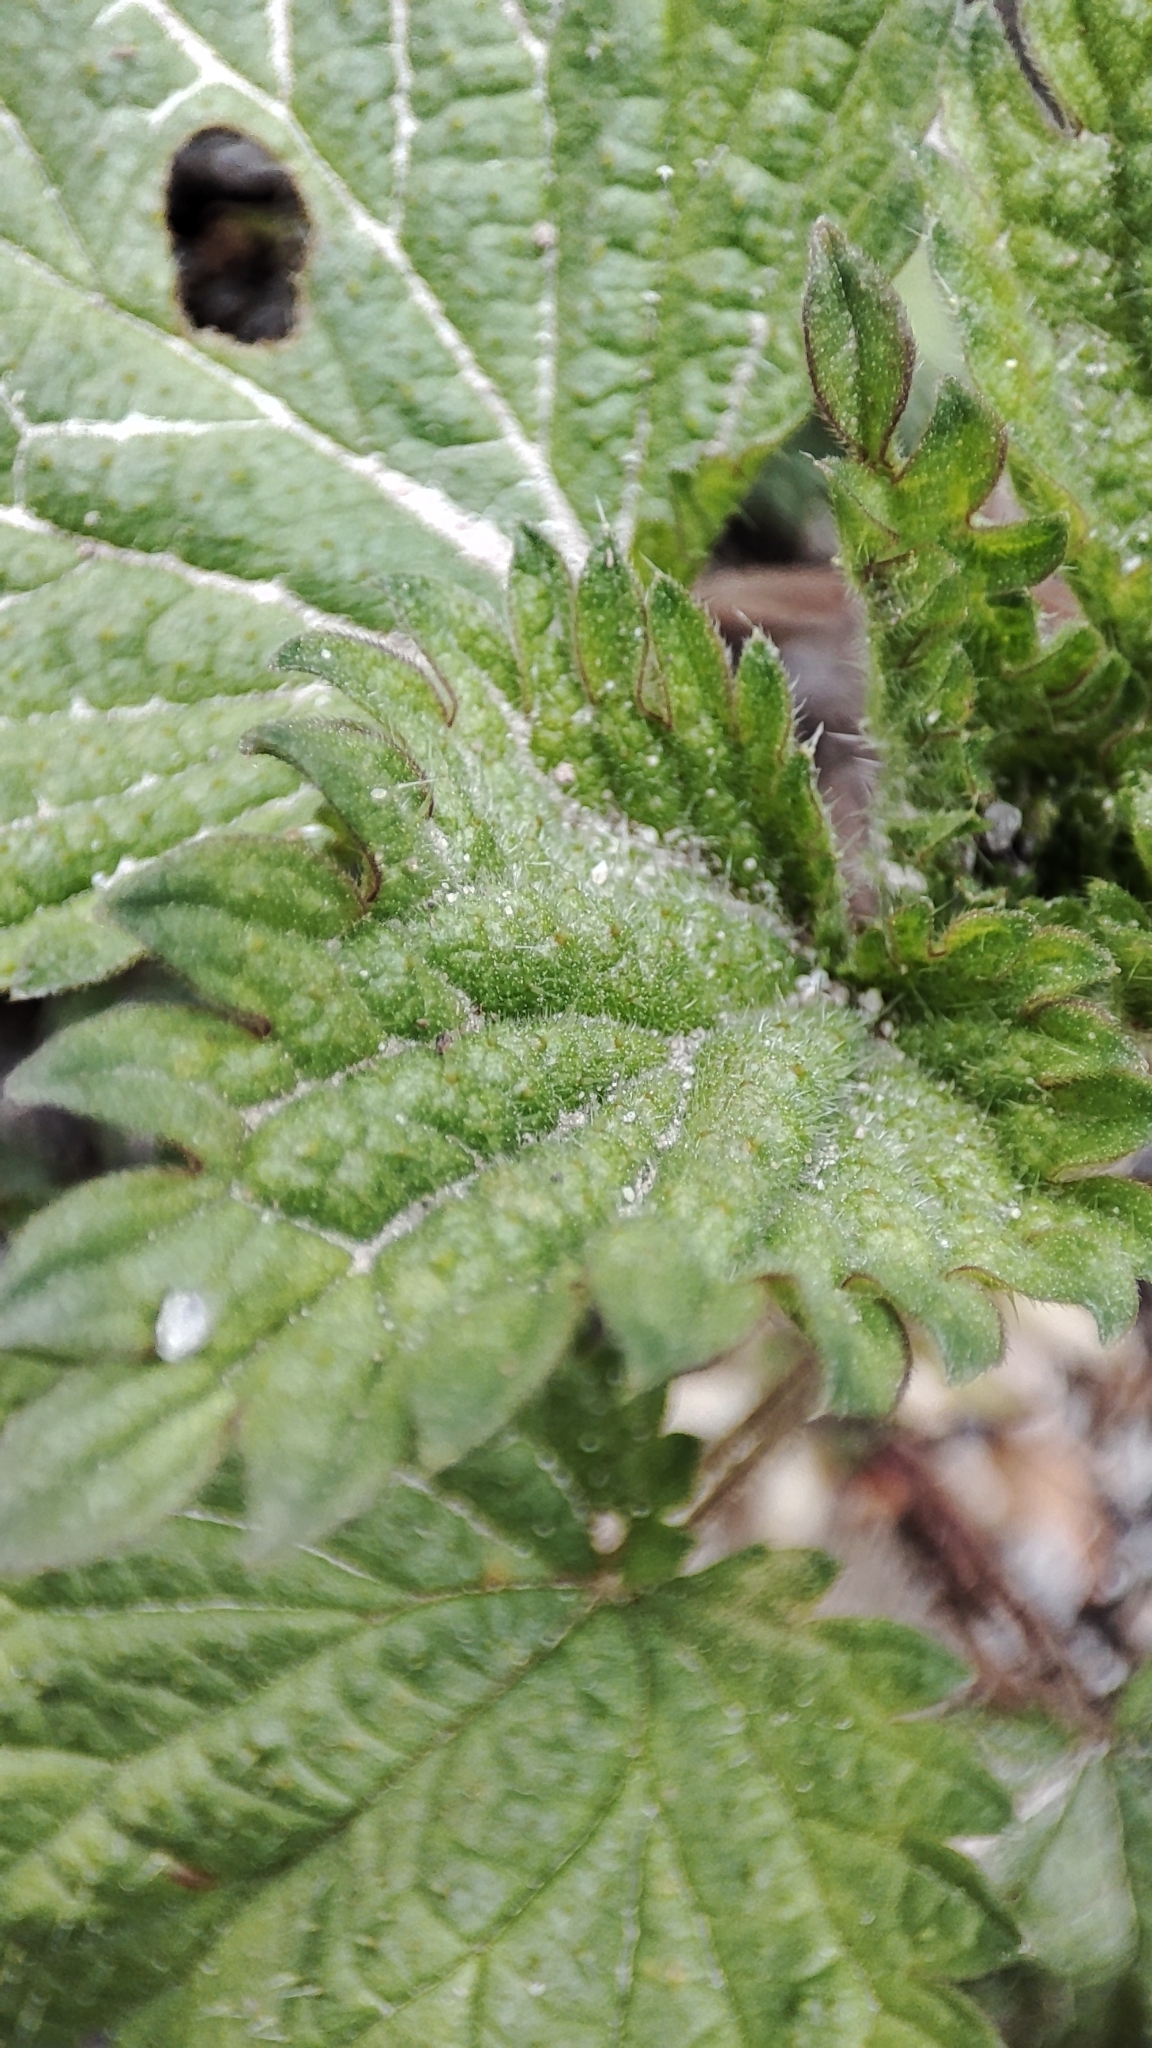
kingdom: Plantae
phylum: Tracheophyta
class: Magnoliopsida
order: Rosales
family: Urticaceae
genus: Urtica
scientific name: Urtica dioica
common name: Common nettle
